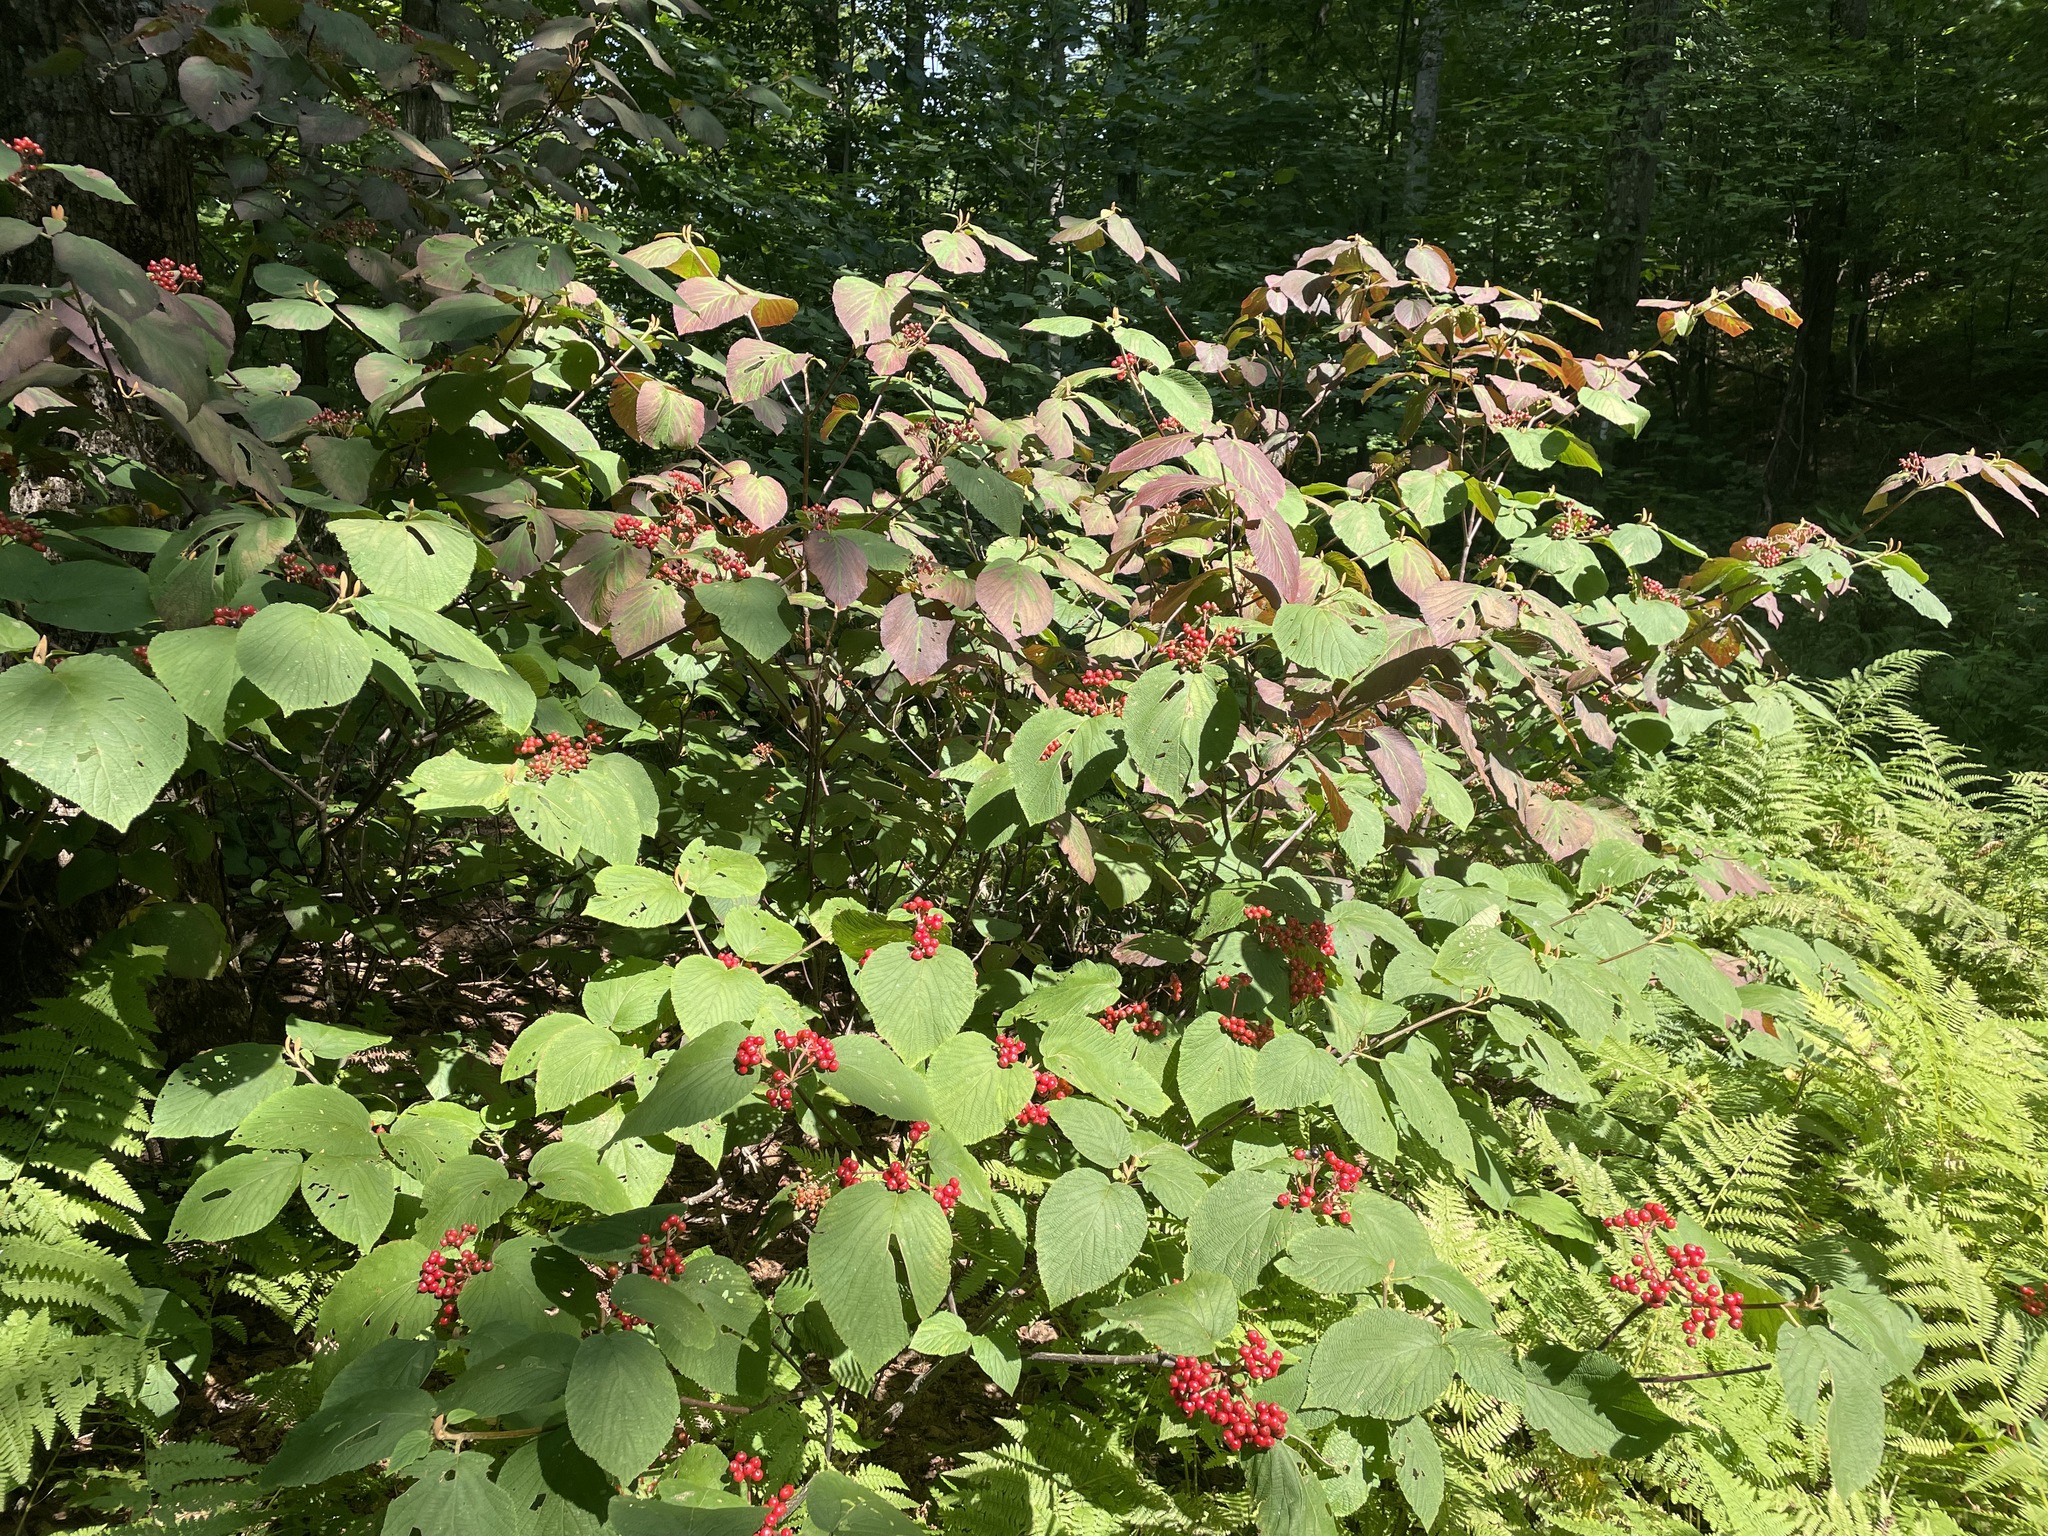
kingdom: Plantae
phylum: Tracheophyta
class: Magnoliopsida
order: Dipsacales
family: Viburnaceae
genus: Viburnum
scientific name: Viburnum lantanoides
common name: Hobblebush
